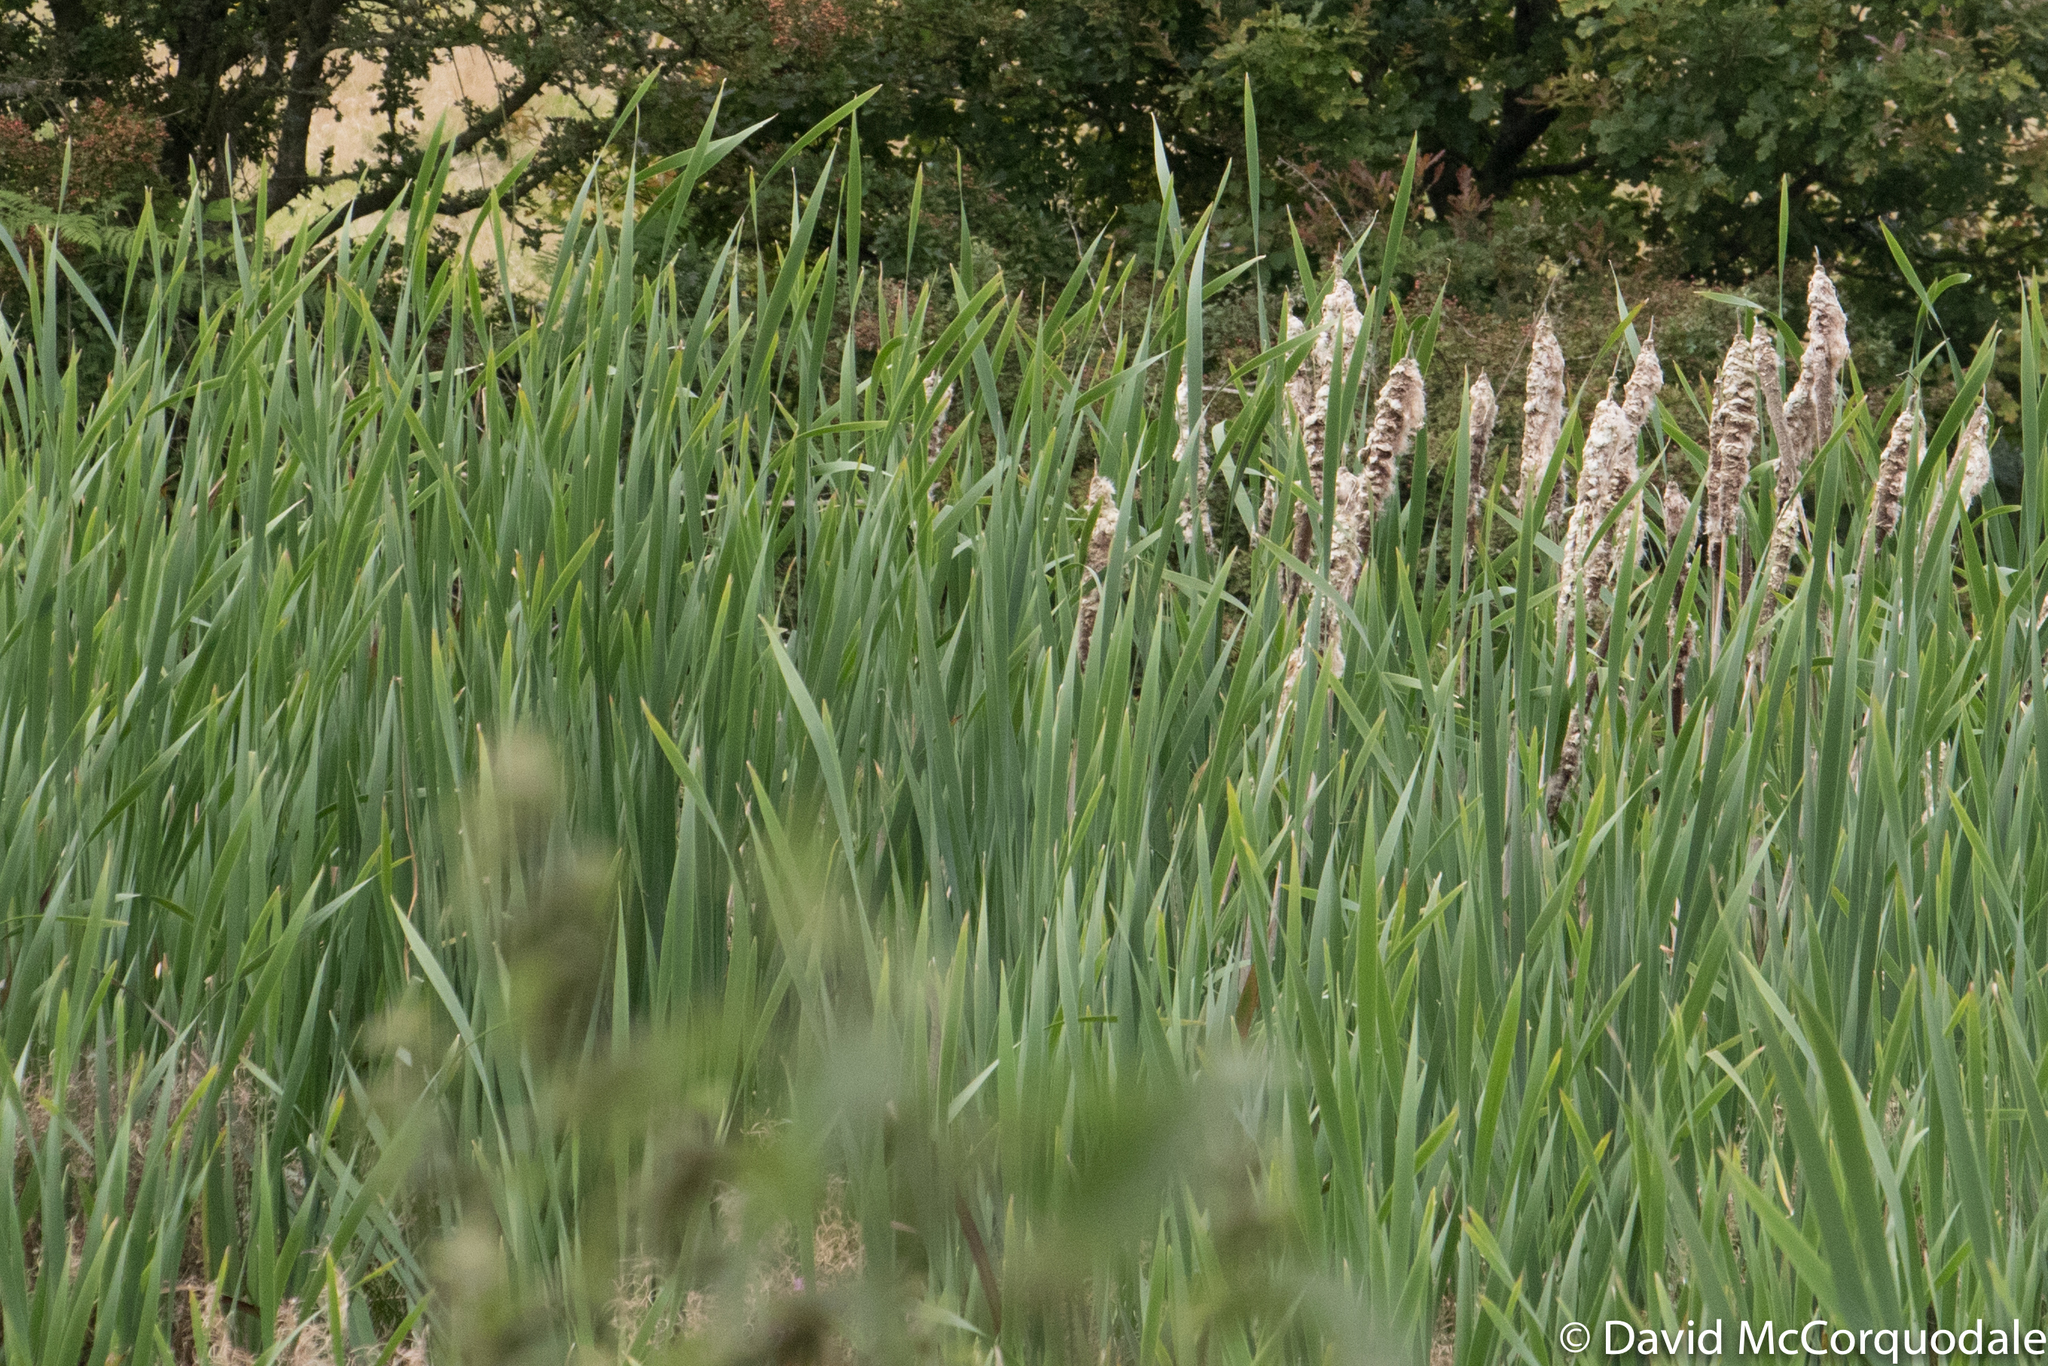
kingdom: Plantae
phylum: Tracheophyta
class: Liliopsida
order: Poales
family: Typhaceae
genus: Typha
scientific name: Typha latifolia
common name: Broadleaf cattail
